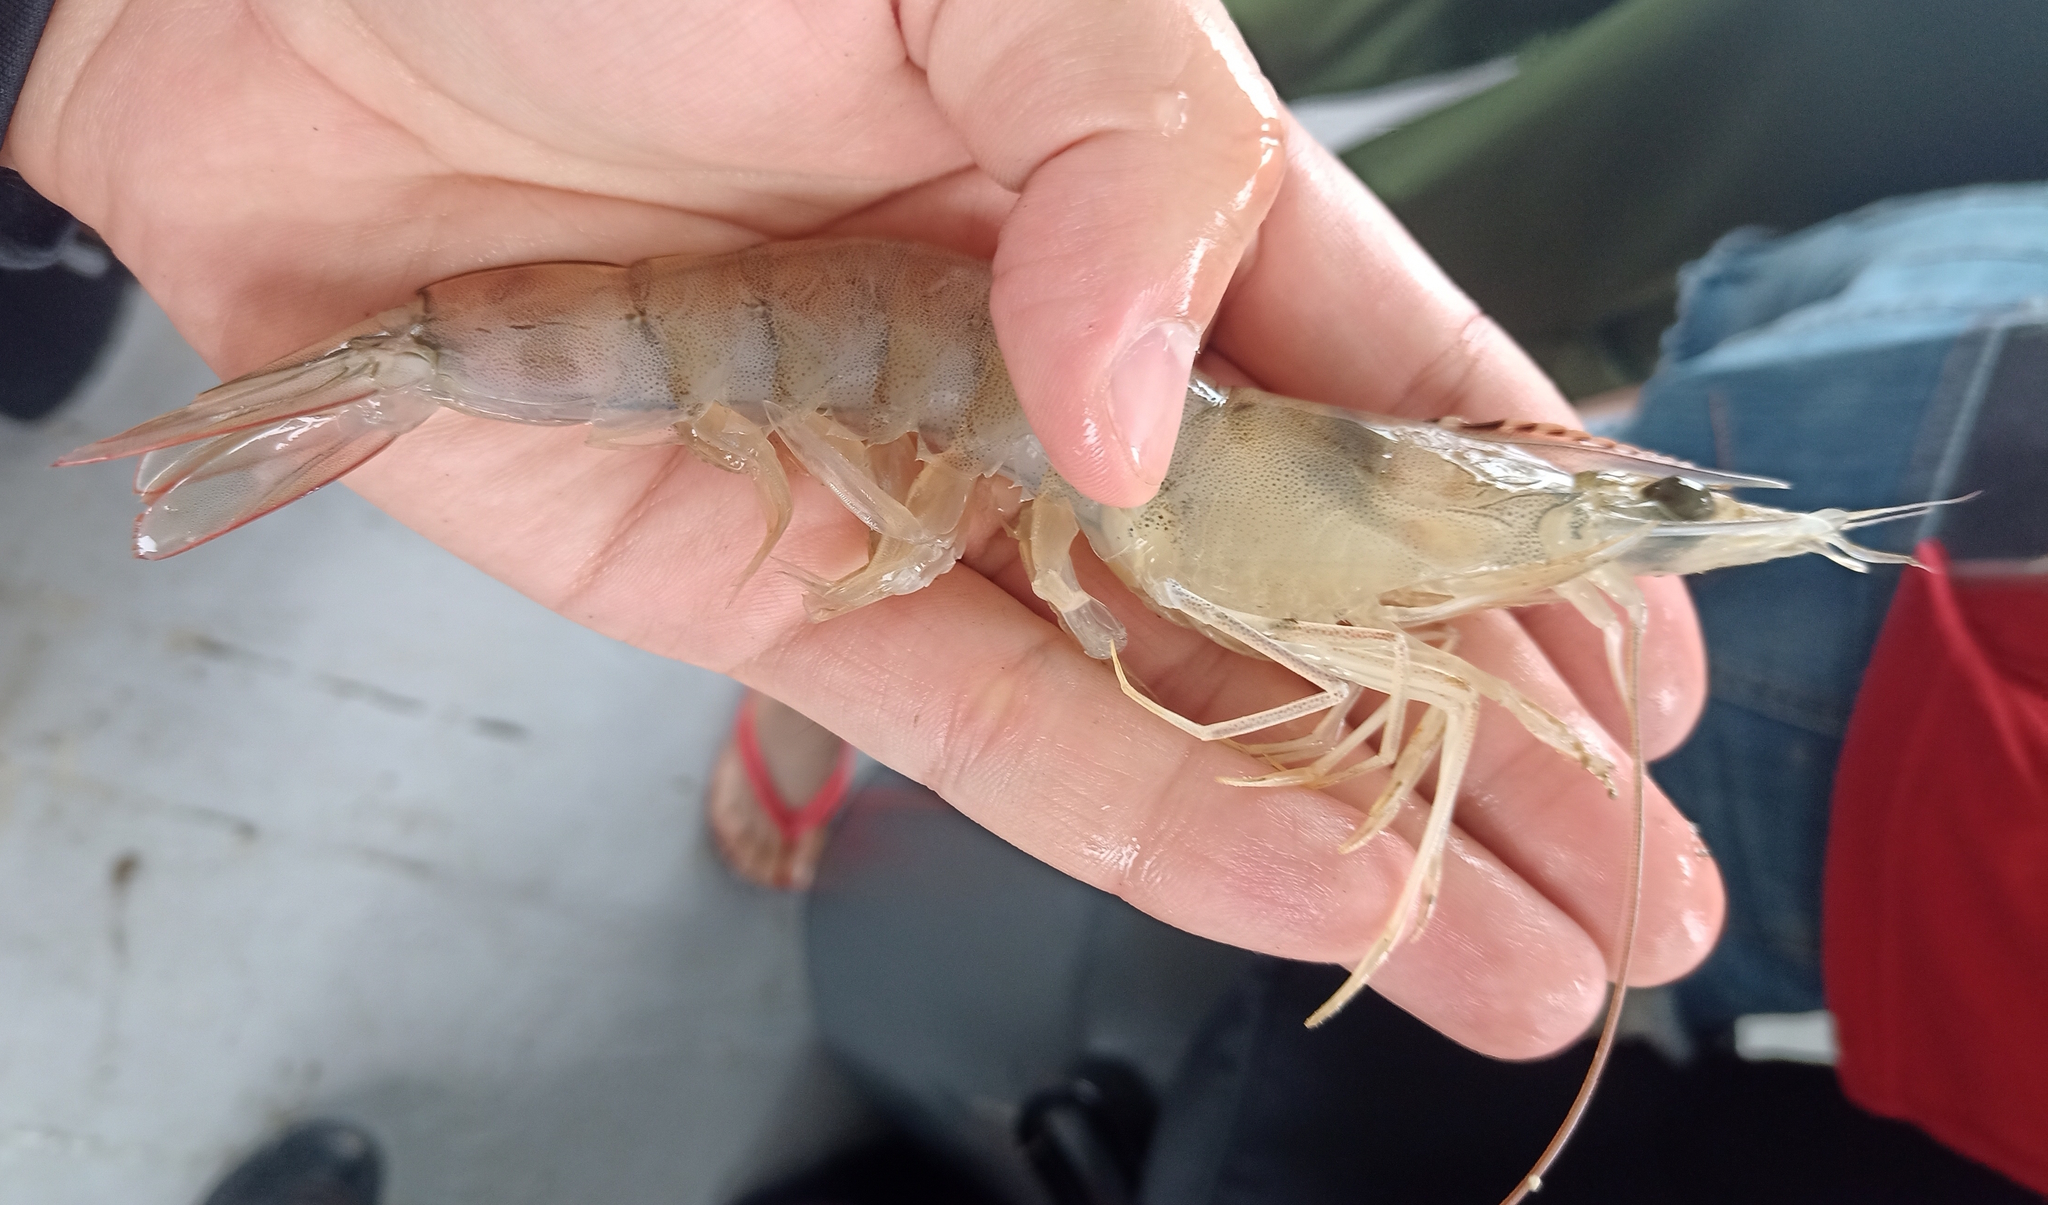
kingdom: Animalia
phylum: Arthropoda
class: Malacostraca
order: Decapoda
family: Penaeidae
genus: Penaeus
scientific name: Penaeus schmitti
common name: Southern white shrimp
